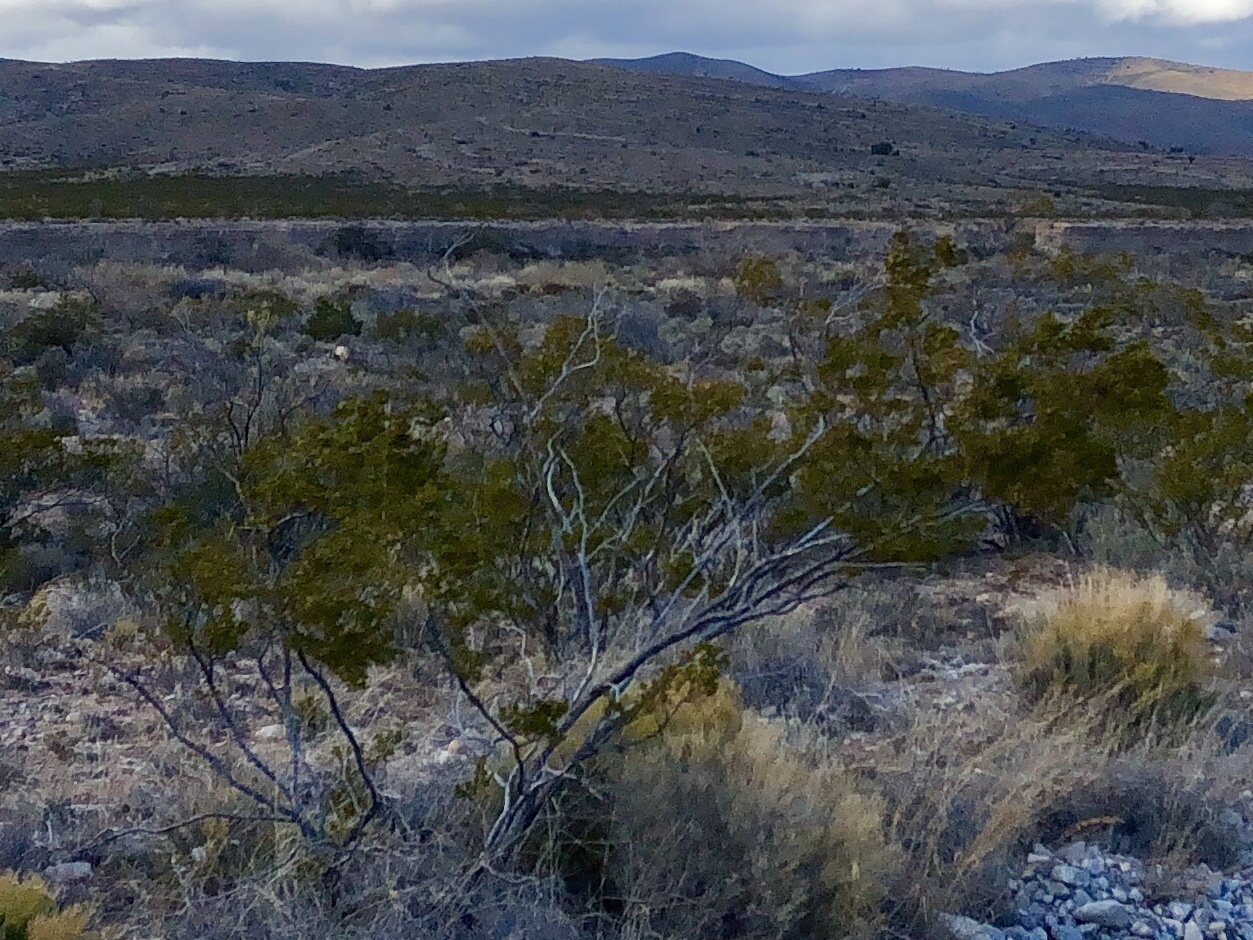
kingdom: Plantae
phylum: Tracheophyta
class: Magnoliopsida
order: Zygophyllales
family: Zygophyllaceae
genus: Larrea
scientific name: Larrea tridentata
